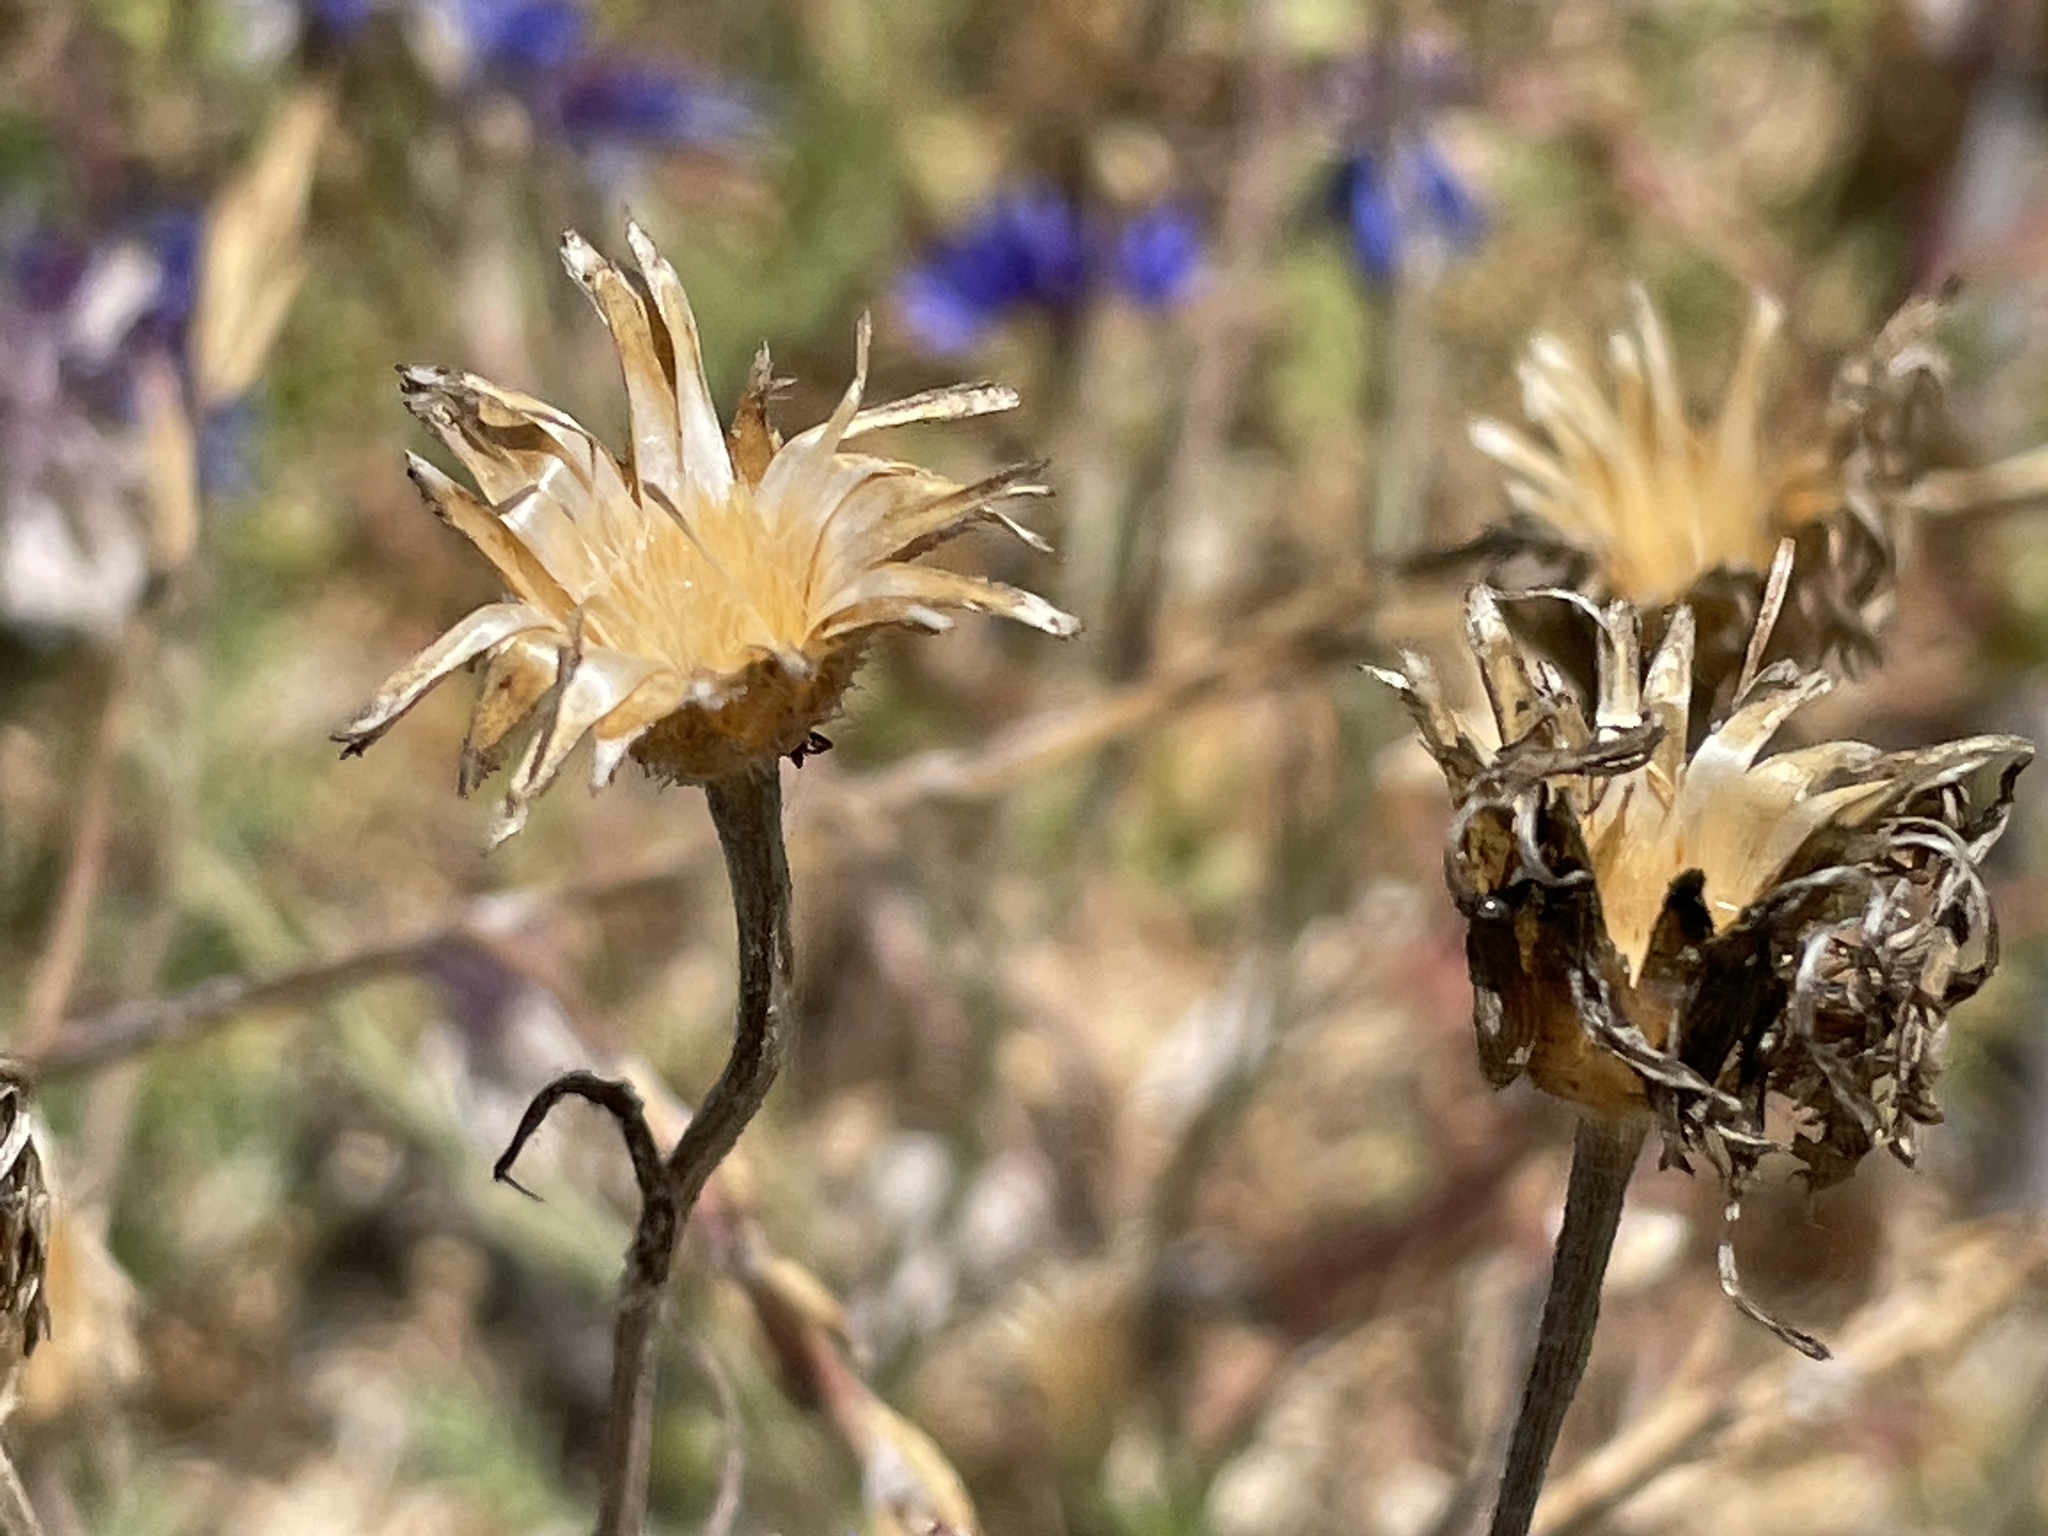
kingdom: Plantae
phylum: Tracheophyta
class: Magnoliopsida
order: Asterales
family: Asteraceae
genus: Centaurea
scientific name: Centaurea cyanus
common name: Cornflower
